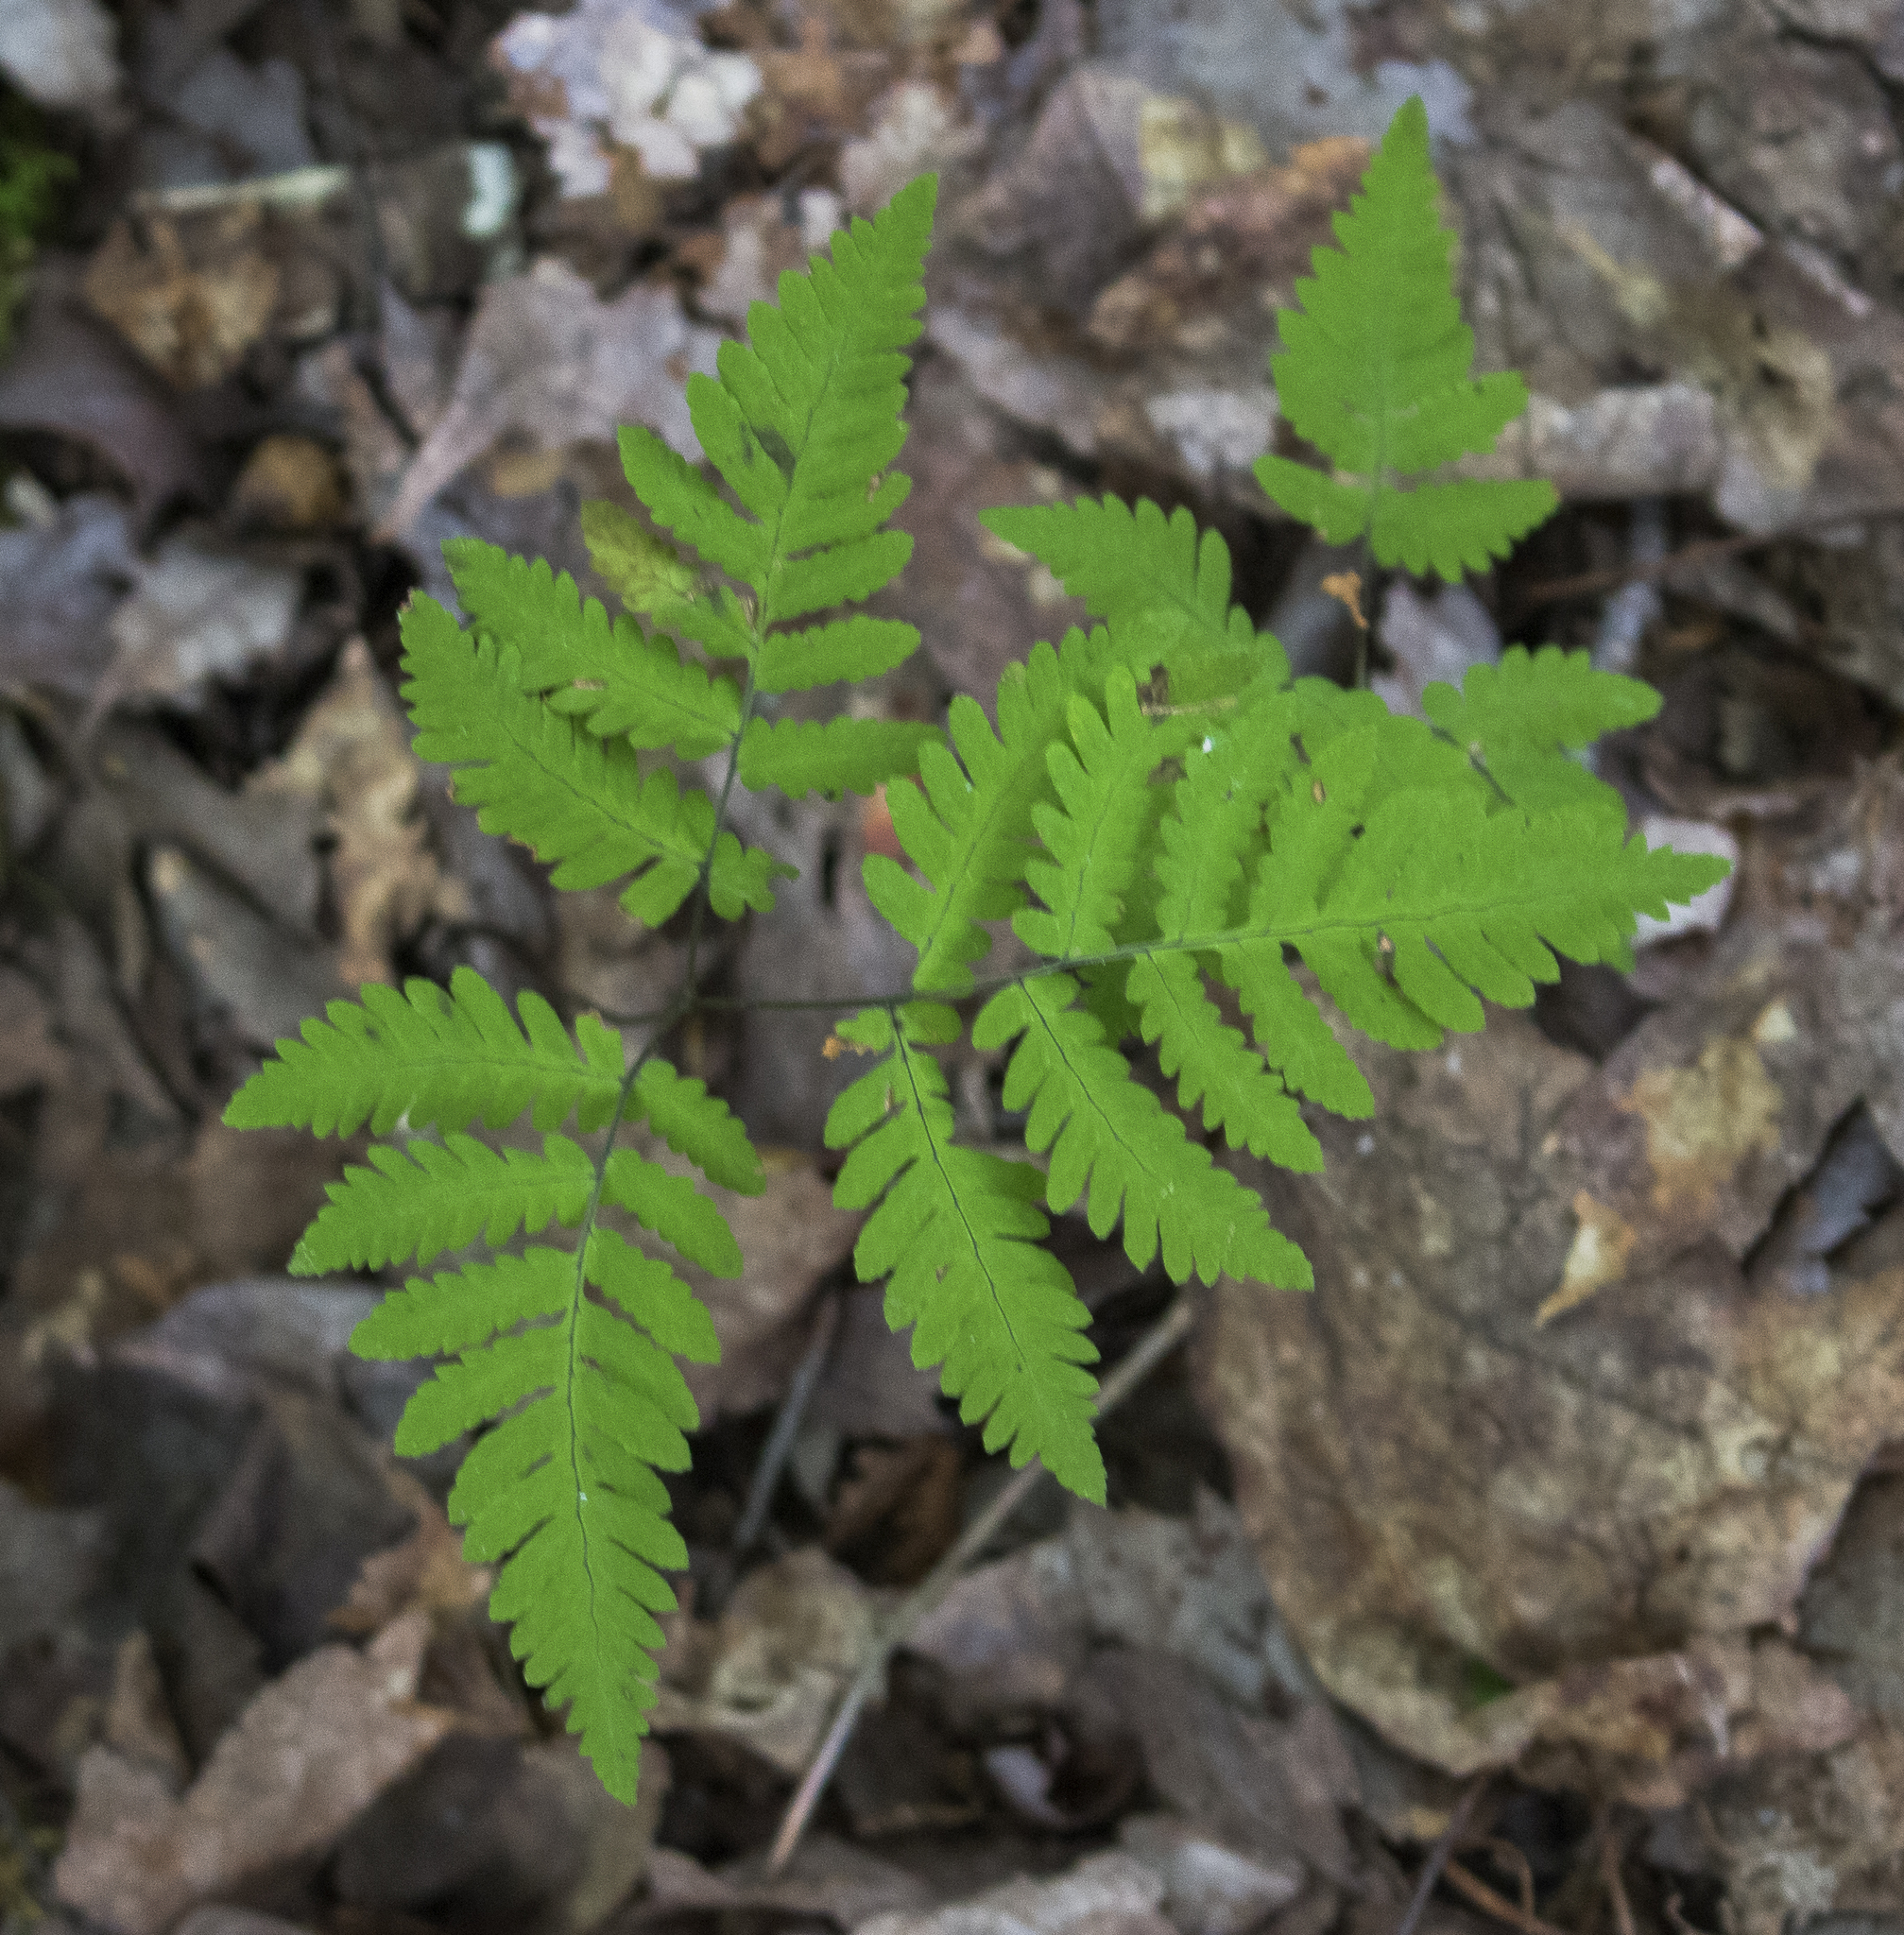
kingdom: Plantae
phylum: Tracheophyta
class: Polypodiopsida
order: Polypodiales
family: Cystopteridaceae
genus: Gymnocarpium
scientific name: Gymnocarpium dryopteris
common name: Oak fern
